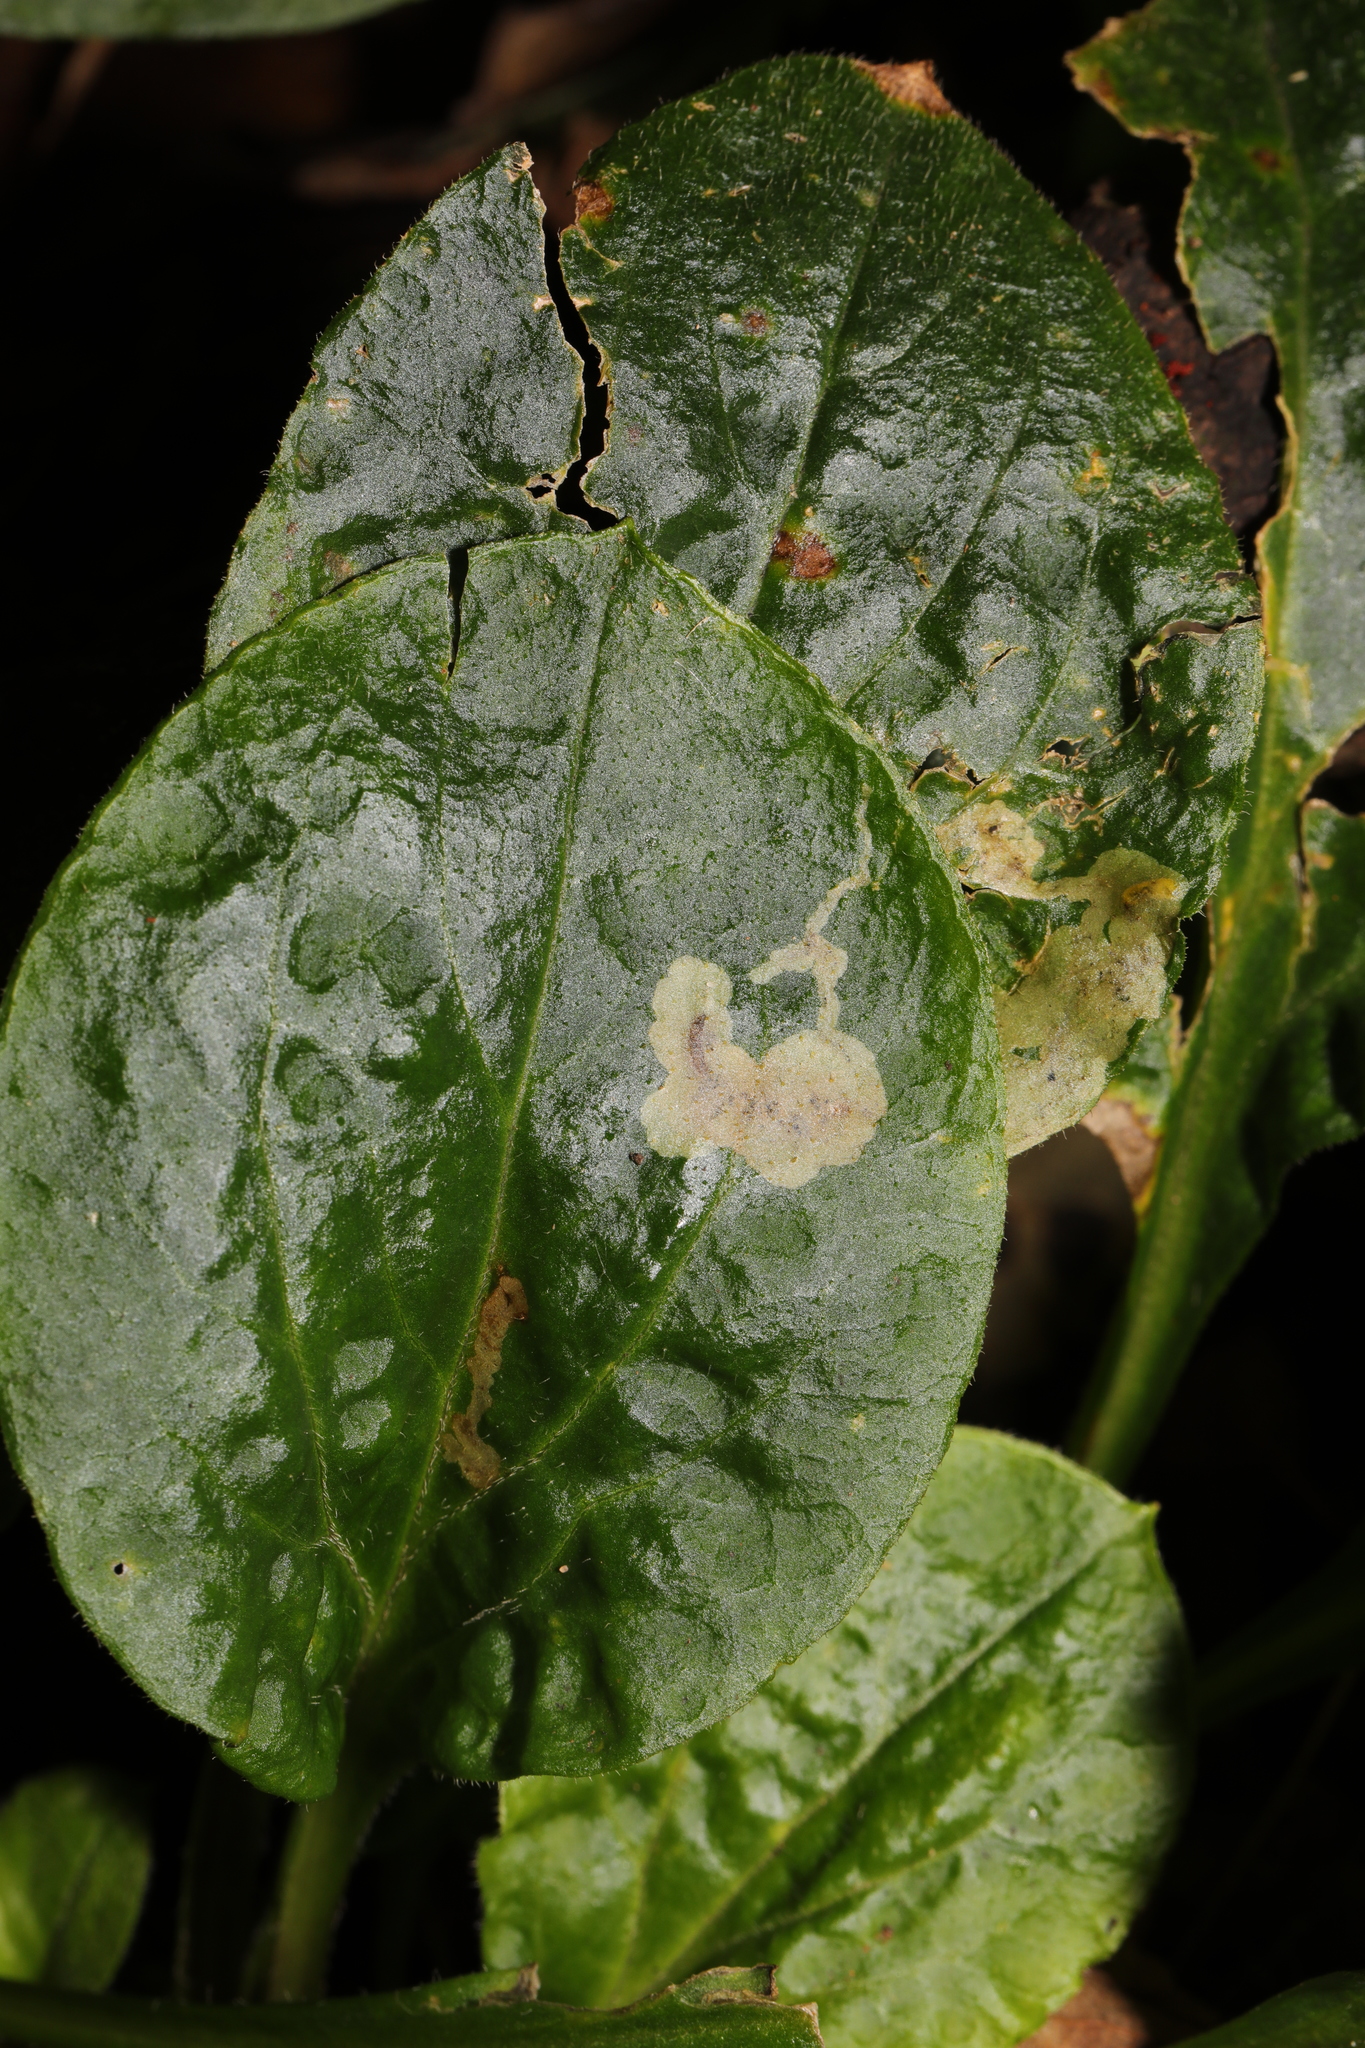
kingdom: Animalia
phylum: Arthropoda
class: Insecta
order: Diptera
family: Agromyzidae
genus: Amauromyza
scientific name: Amauromyza flavifrons
